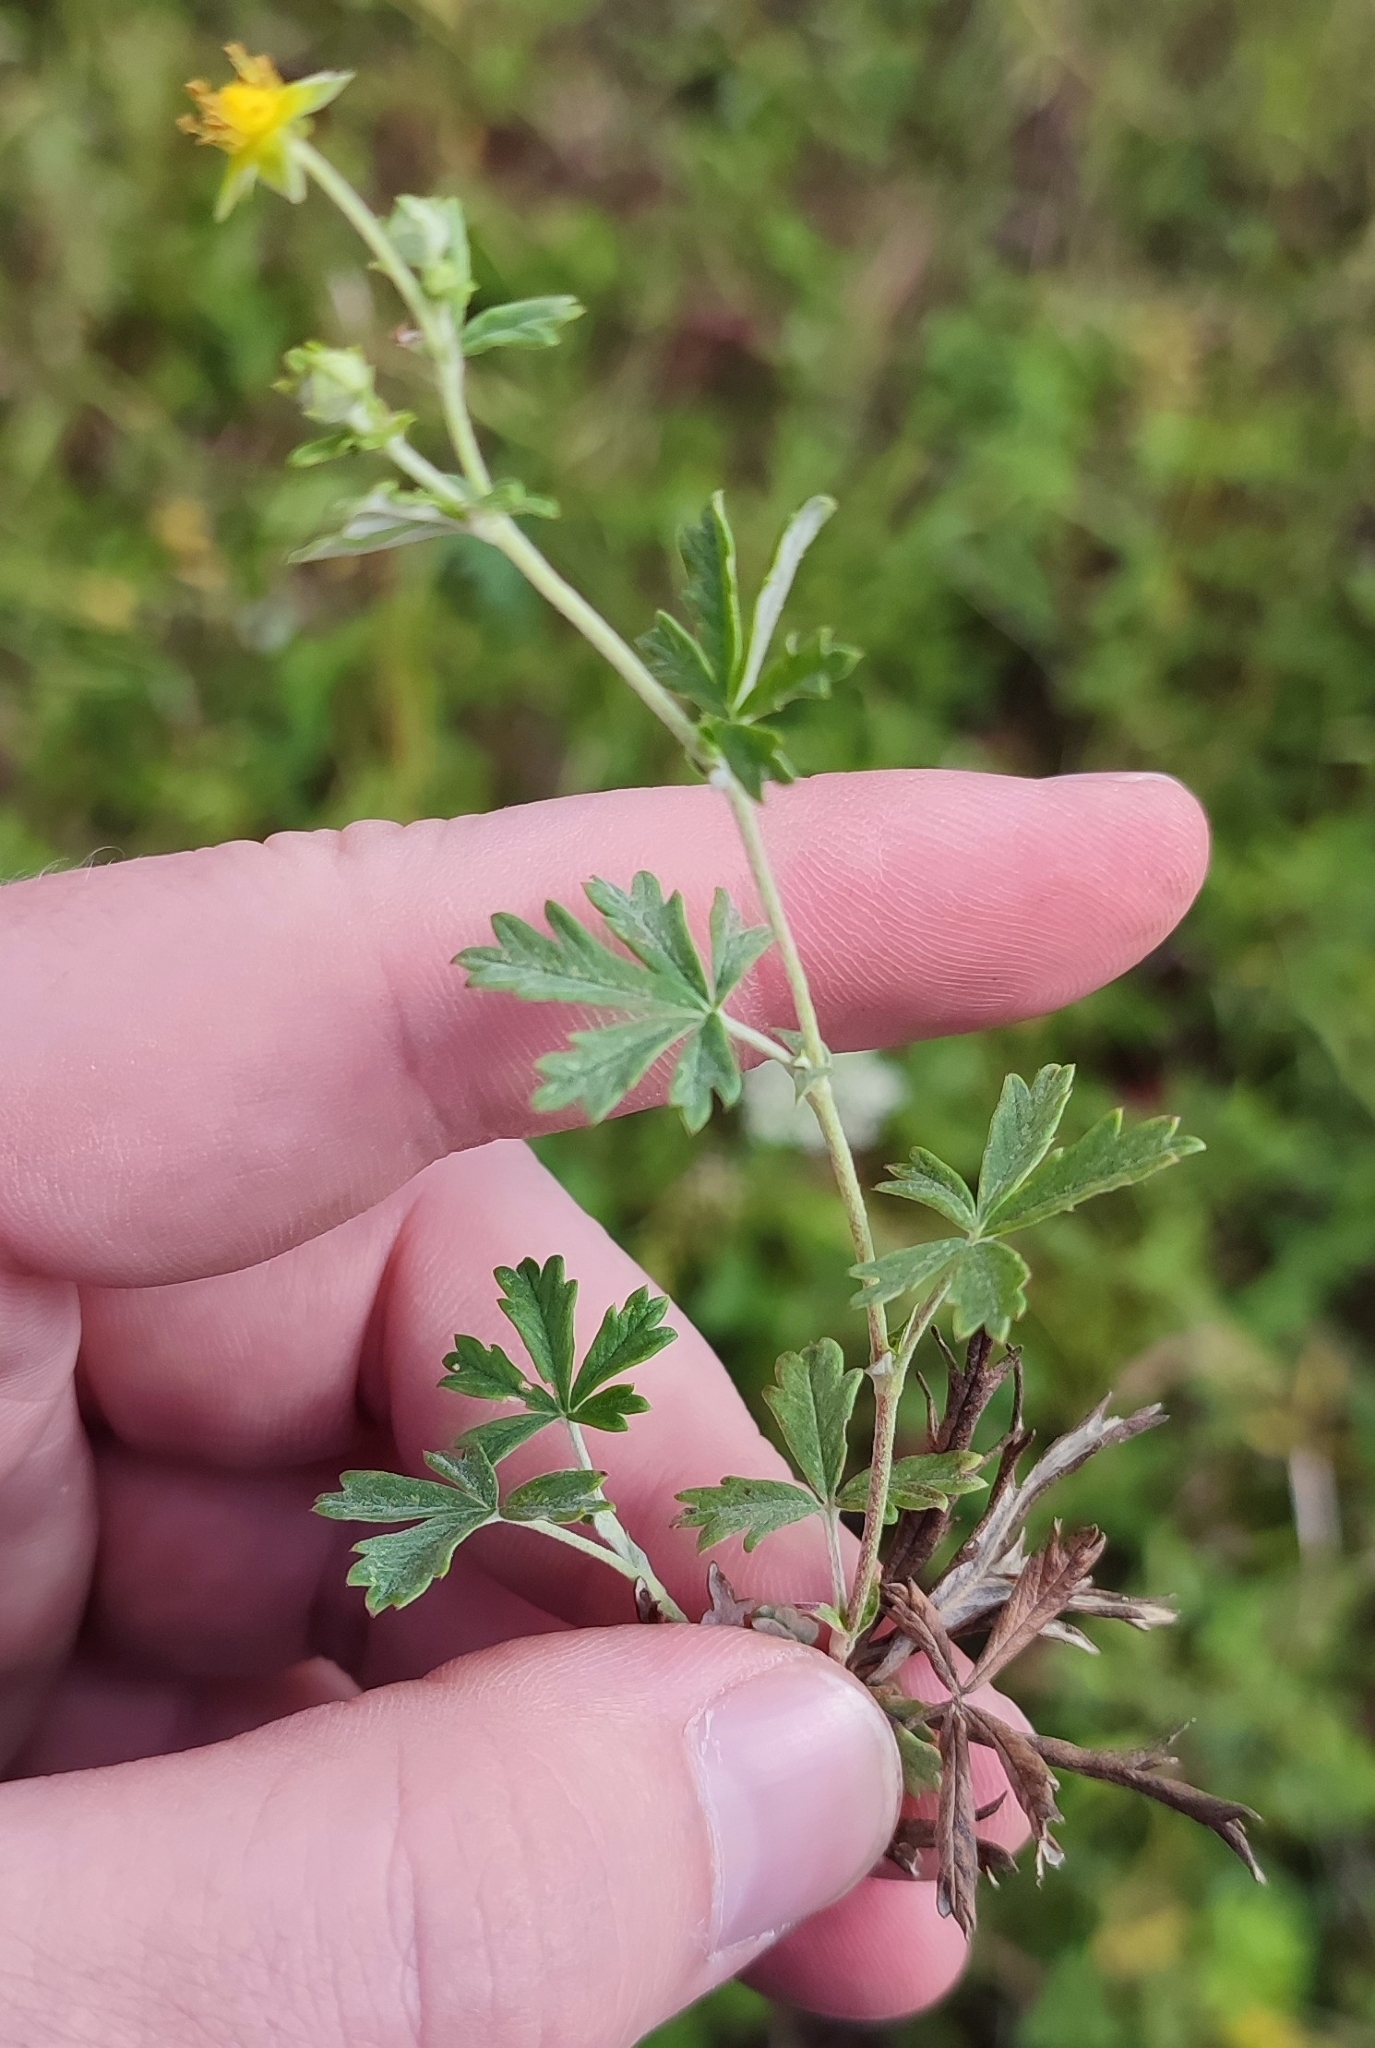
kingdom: Plantae
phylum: Tracheophyta
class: Magnoliopsida
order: Rosales
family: Rosaceae
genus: Potentilla
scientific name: Potentilla argentea
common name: Hoary cinquefoil
